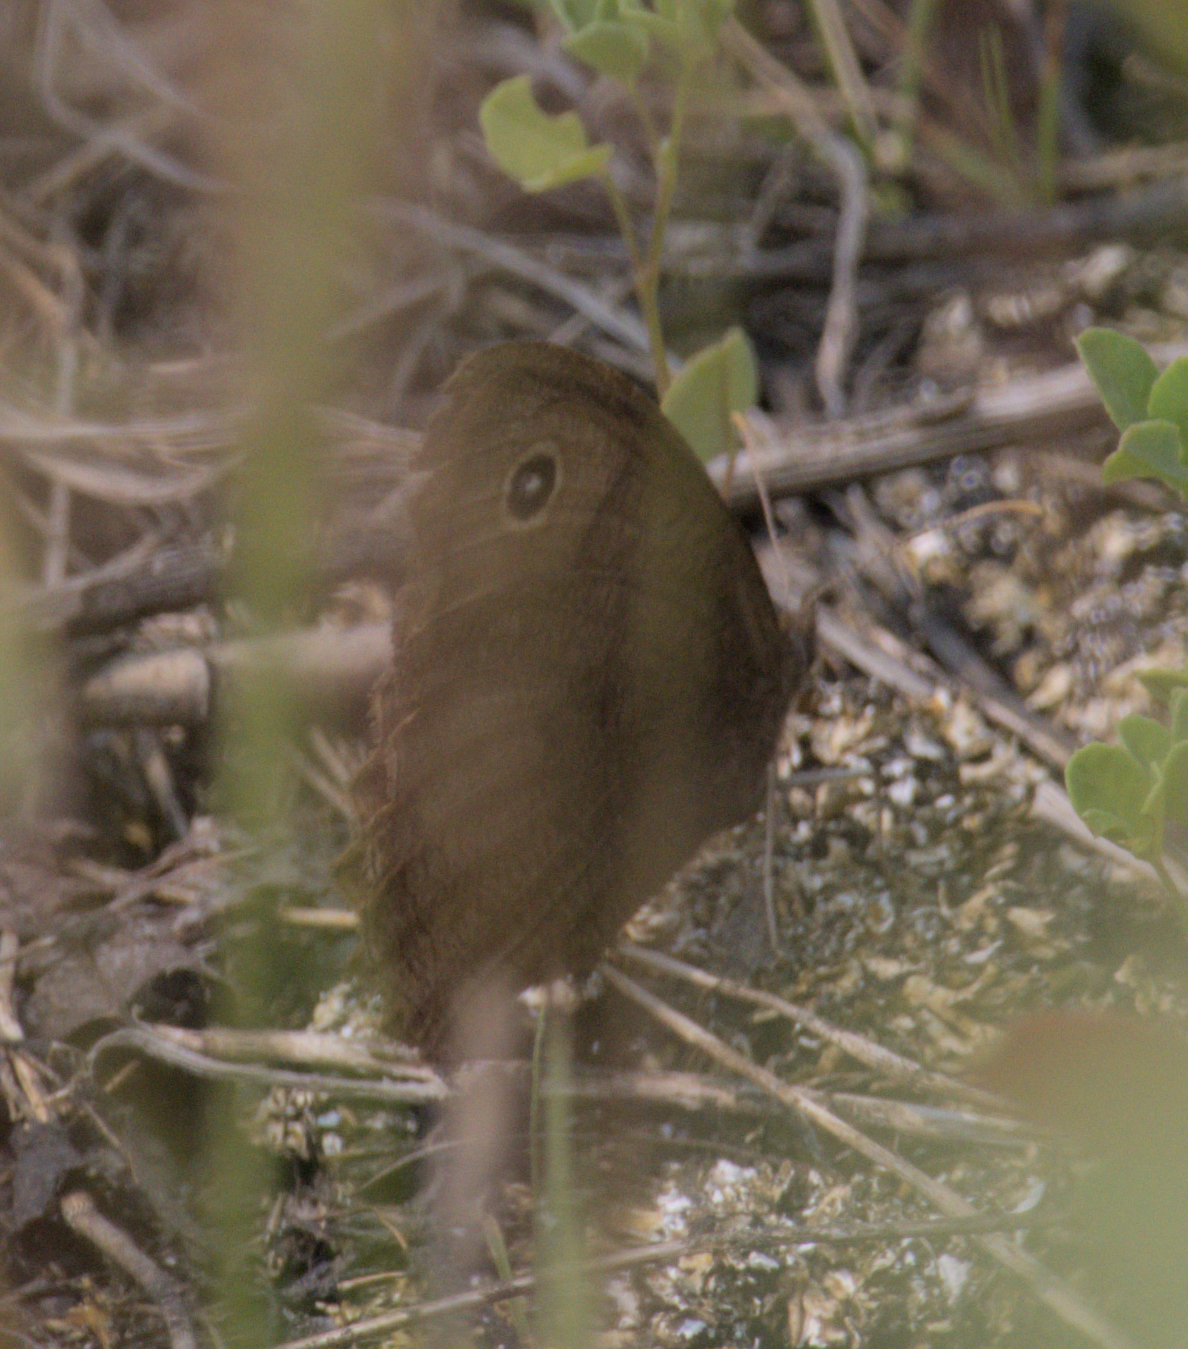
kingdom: Animalia
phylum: Arthropoda
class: Insecta
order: Lepidoptera
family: Nymphalidae
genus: Cercyonis
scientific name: Cercyonis pegala
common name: Common wood-nymph
